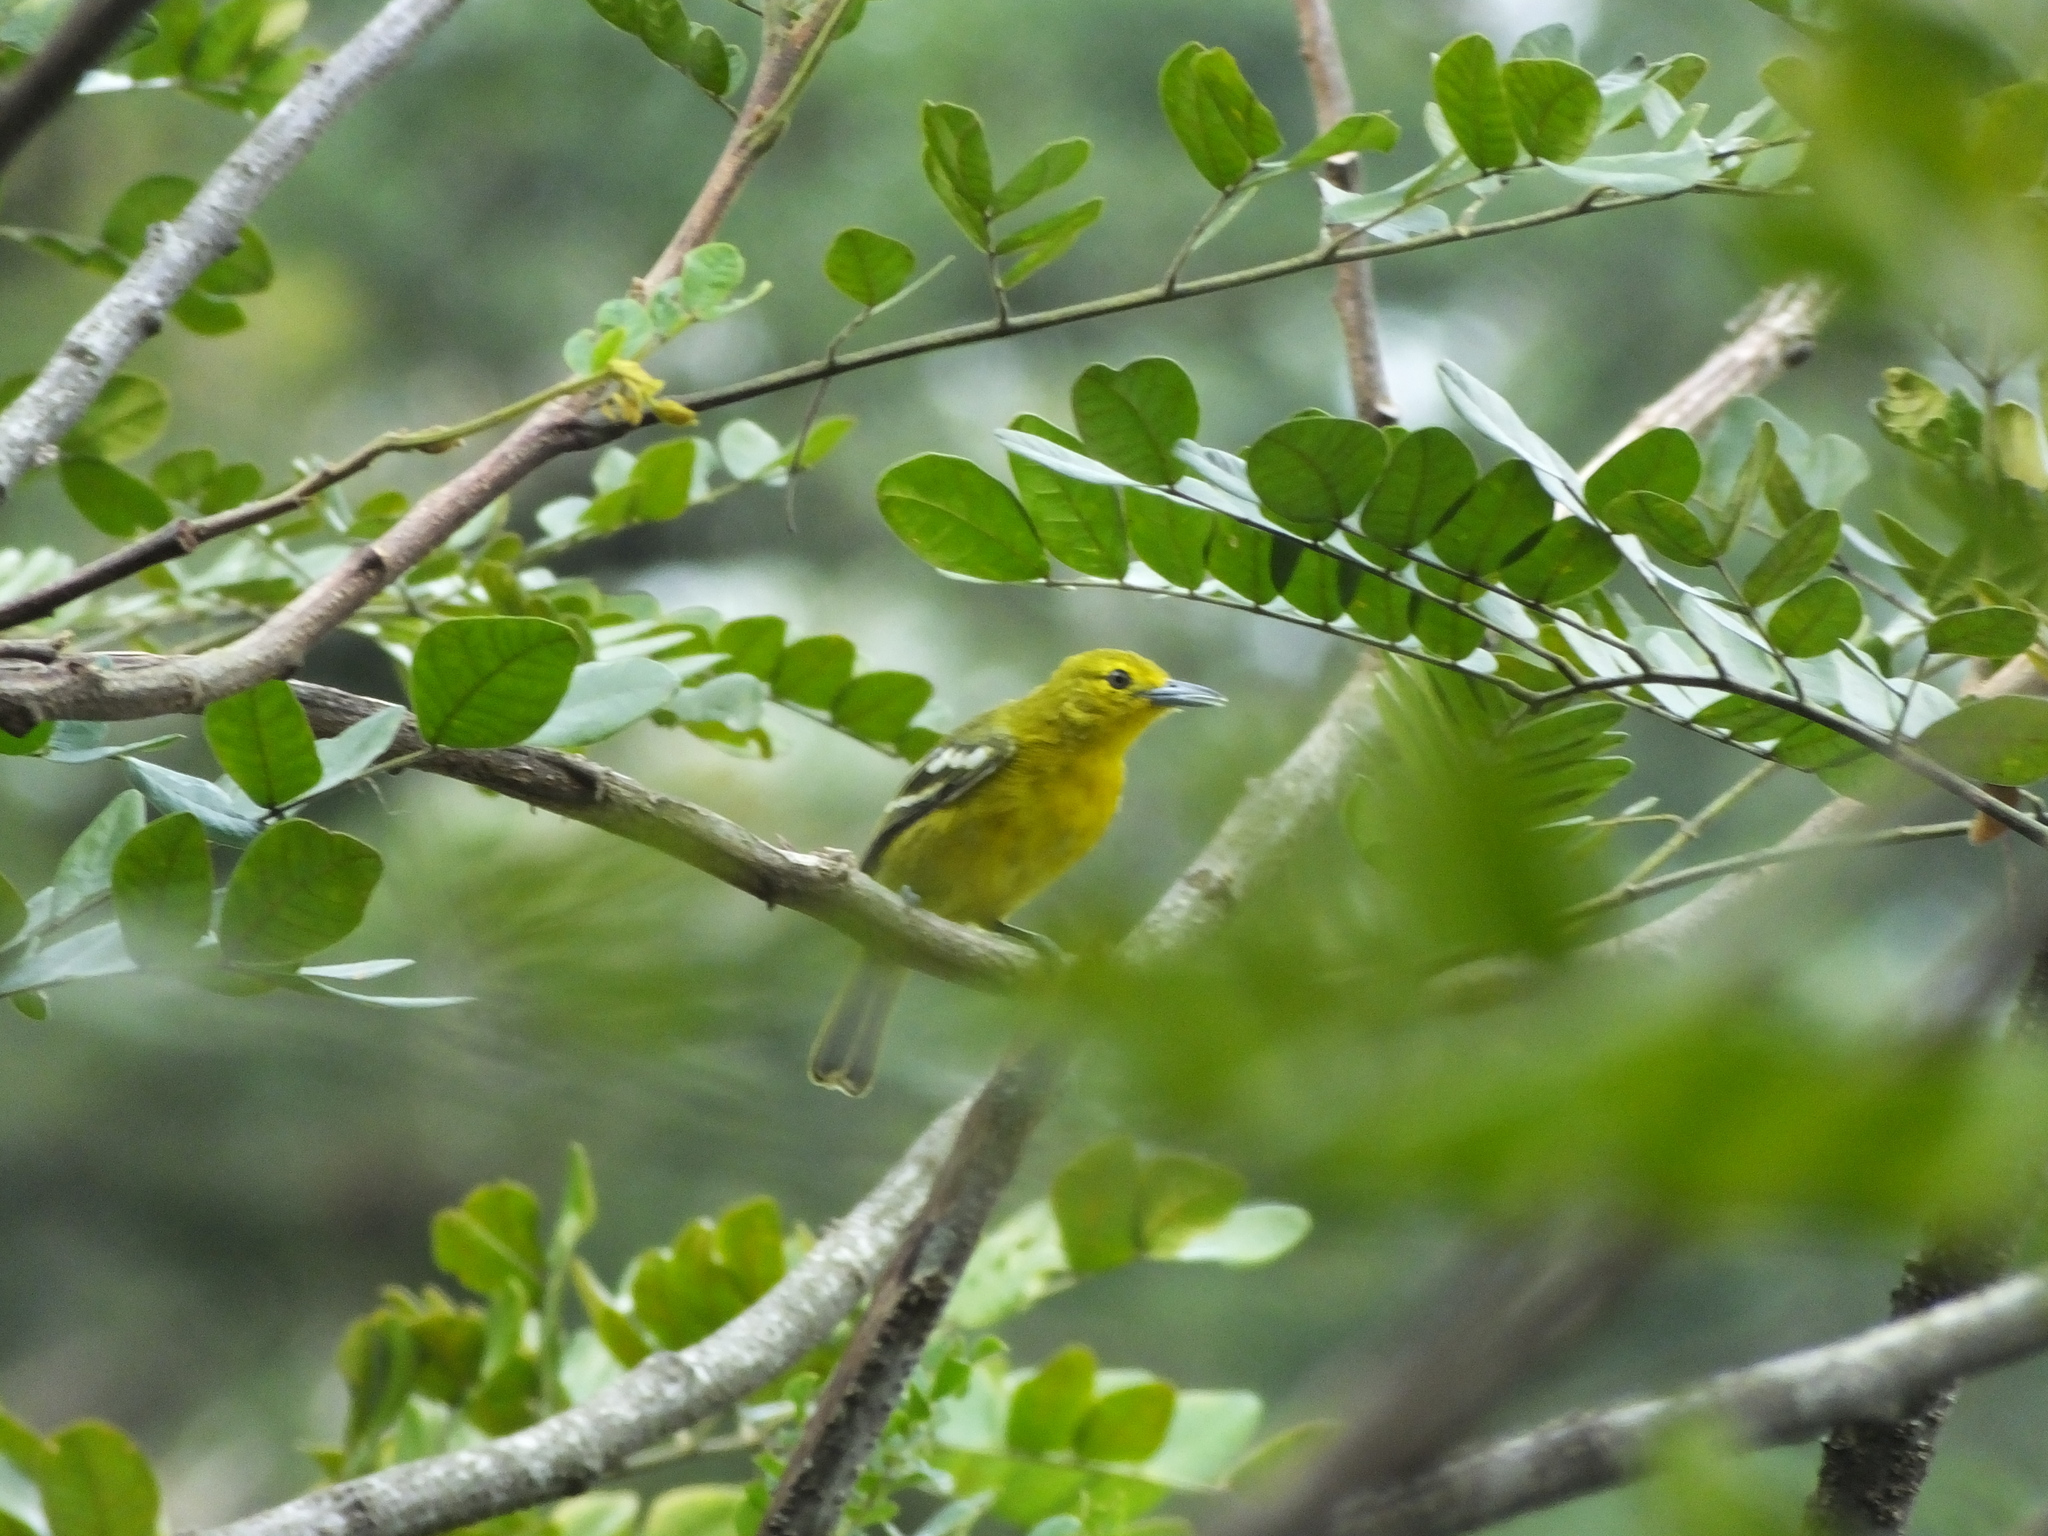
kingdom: Animalia
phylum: Chordata
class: Aves
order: Passeriformes
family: Aegithinidae
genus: Aegithina
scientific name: Aegithina tiphia
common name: Common iora
